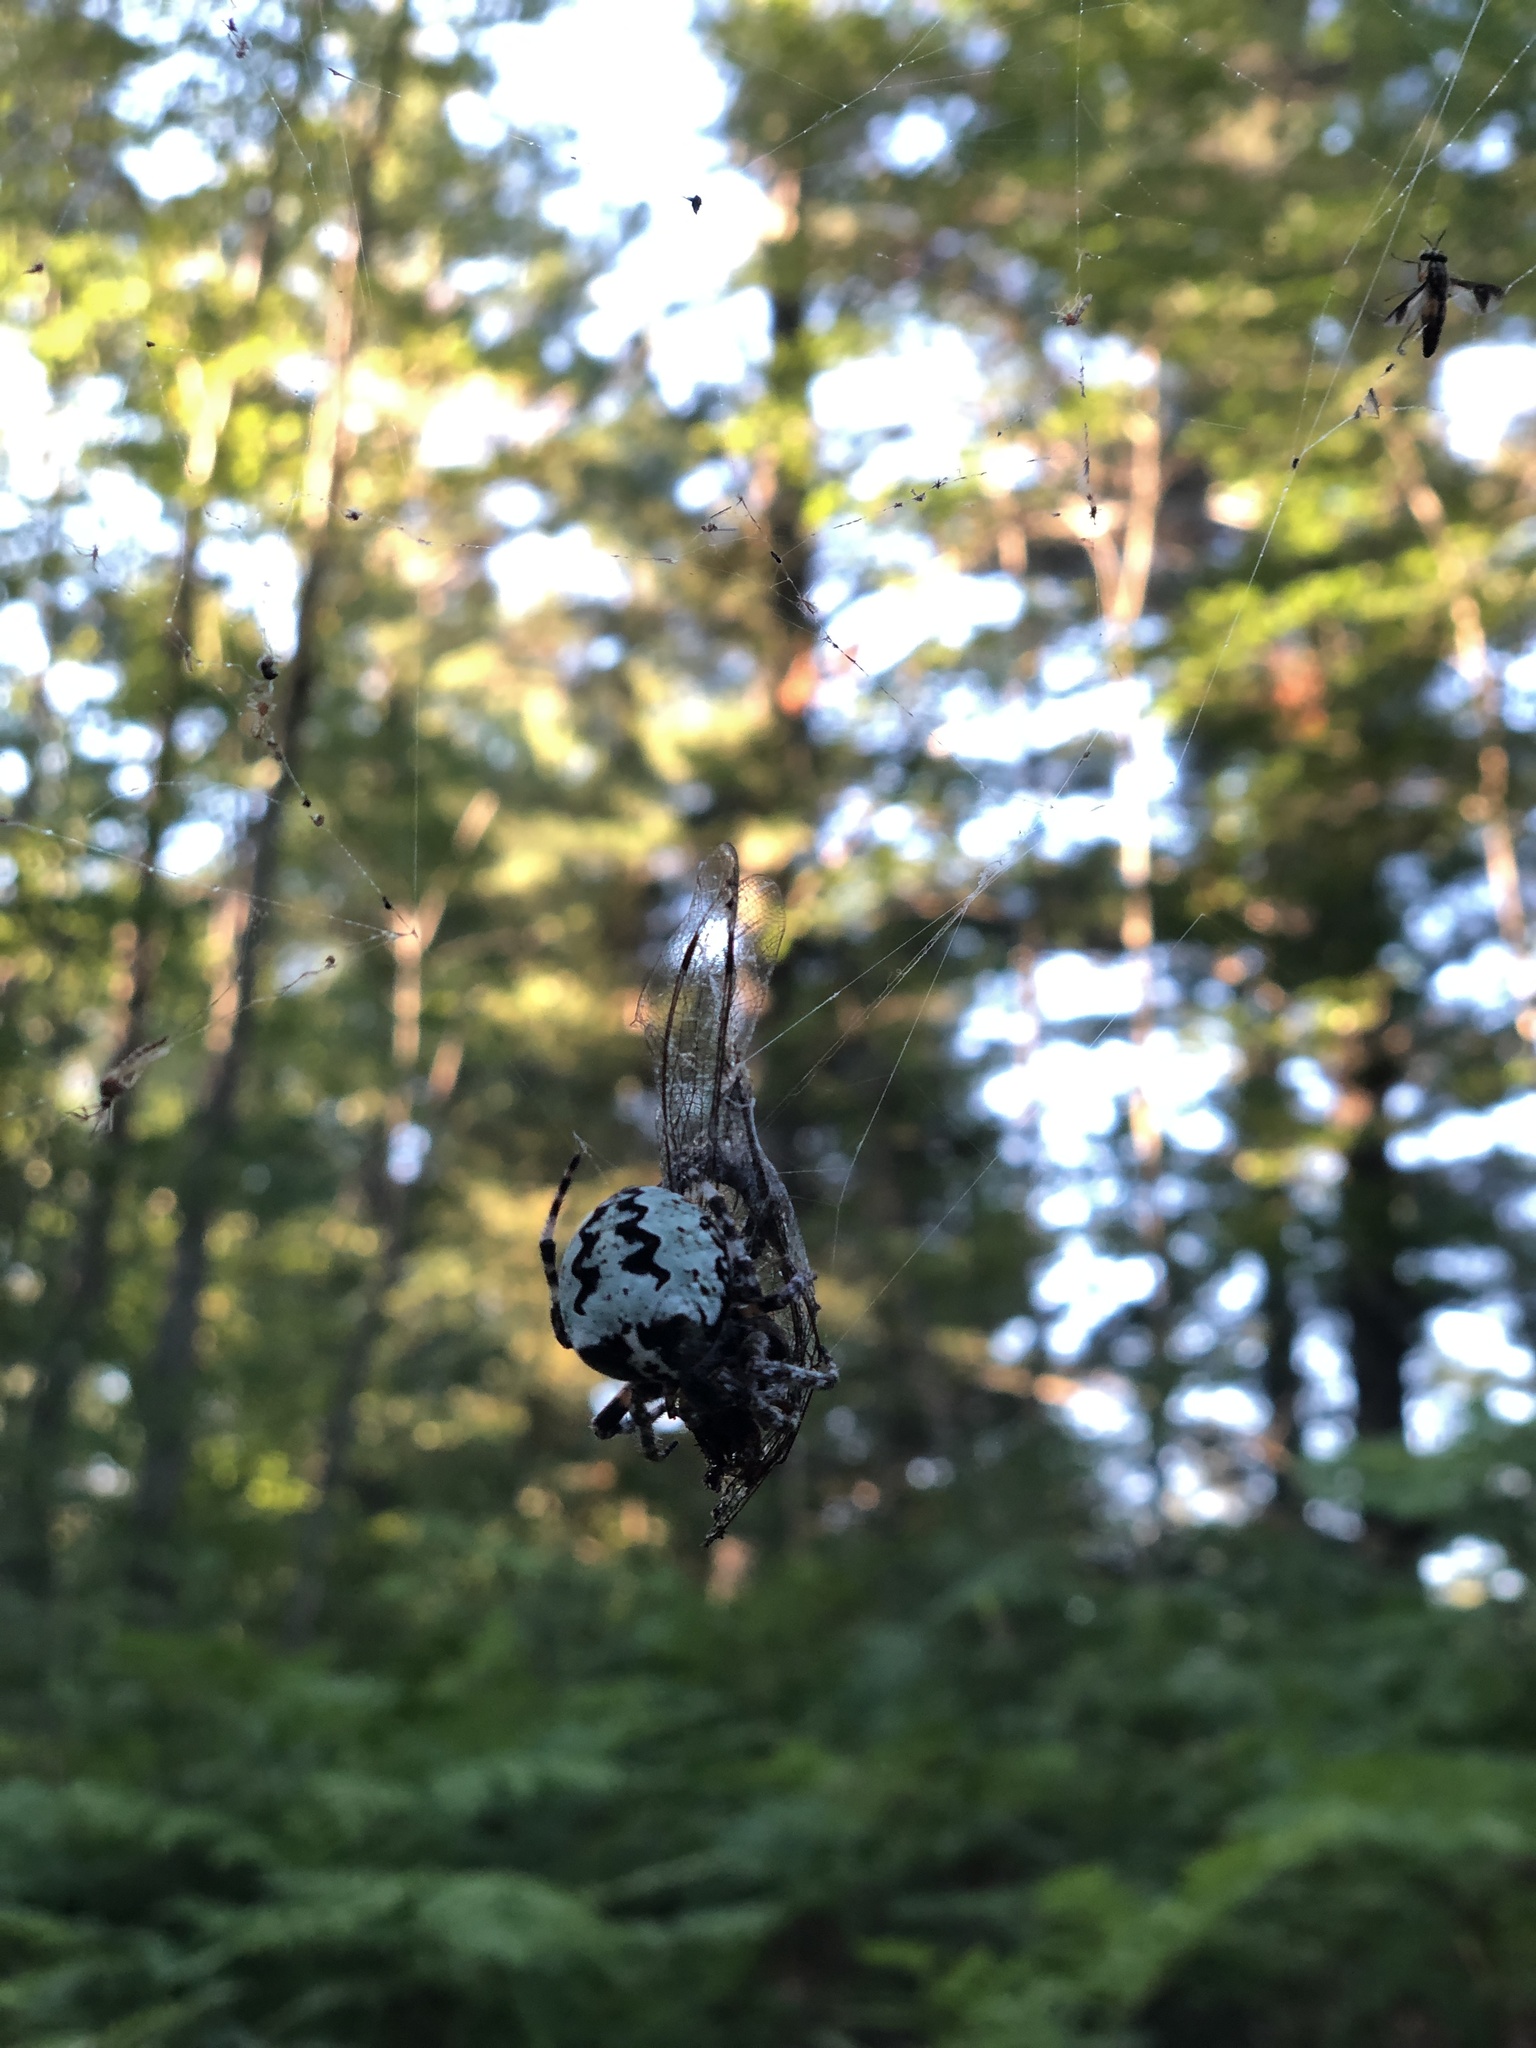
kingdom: Animalia
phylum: Arthropoda
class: Arachnida
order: Araneae
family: Araneidae
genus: Araneus
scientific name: Araneus bicentenarius
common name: Giant lichen orbweaver
